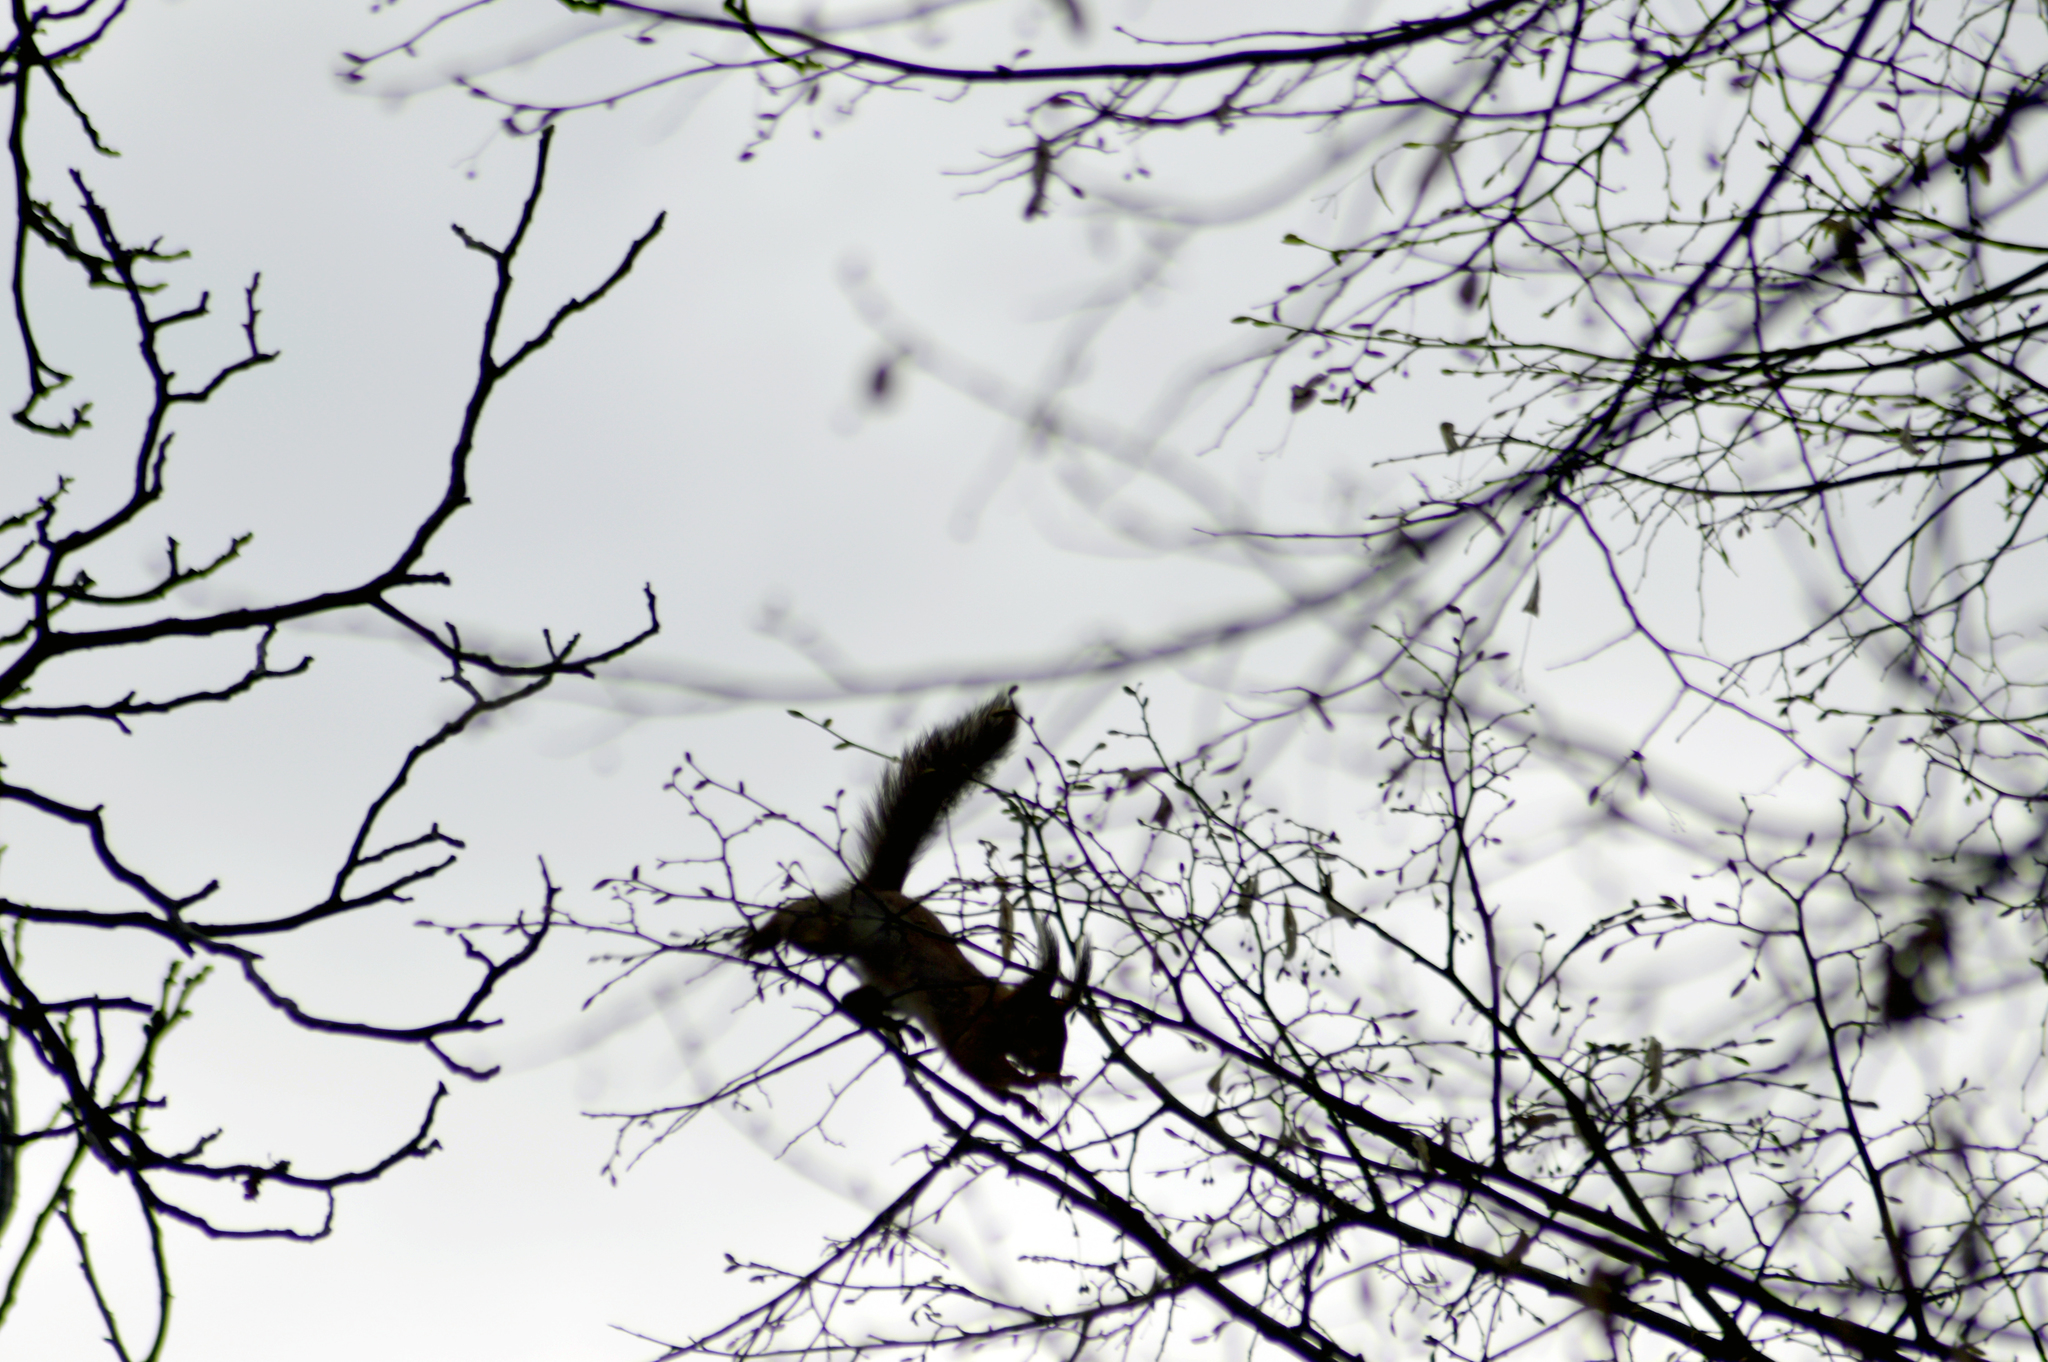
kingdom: Animalia
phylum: Chordata
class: Mammalia
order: Rodentia
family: Sciuridae
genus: Sciurus
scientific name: Sciurus vulgaris
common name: Eurasian red squirrel
